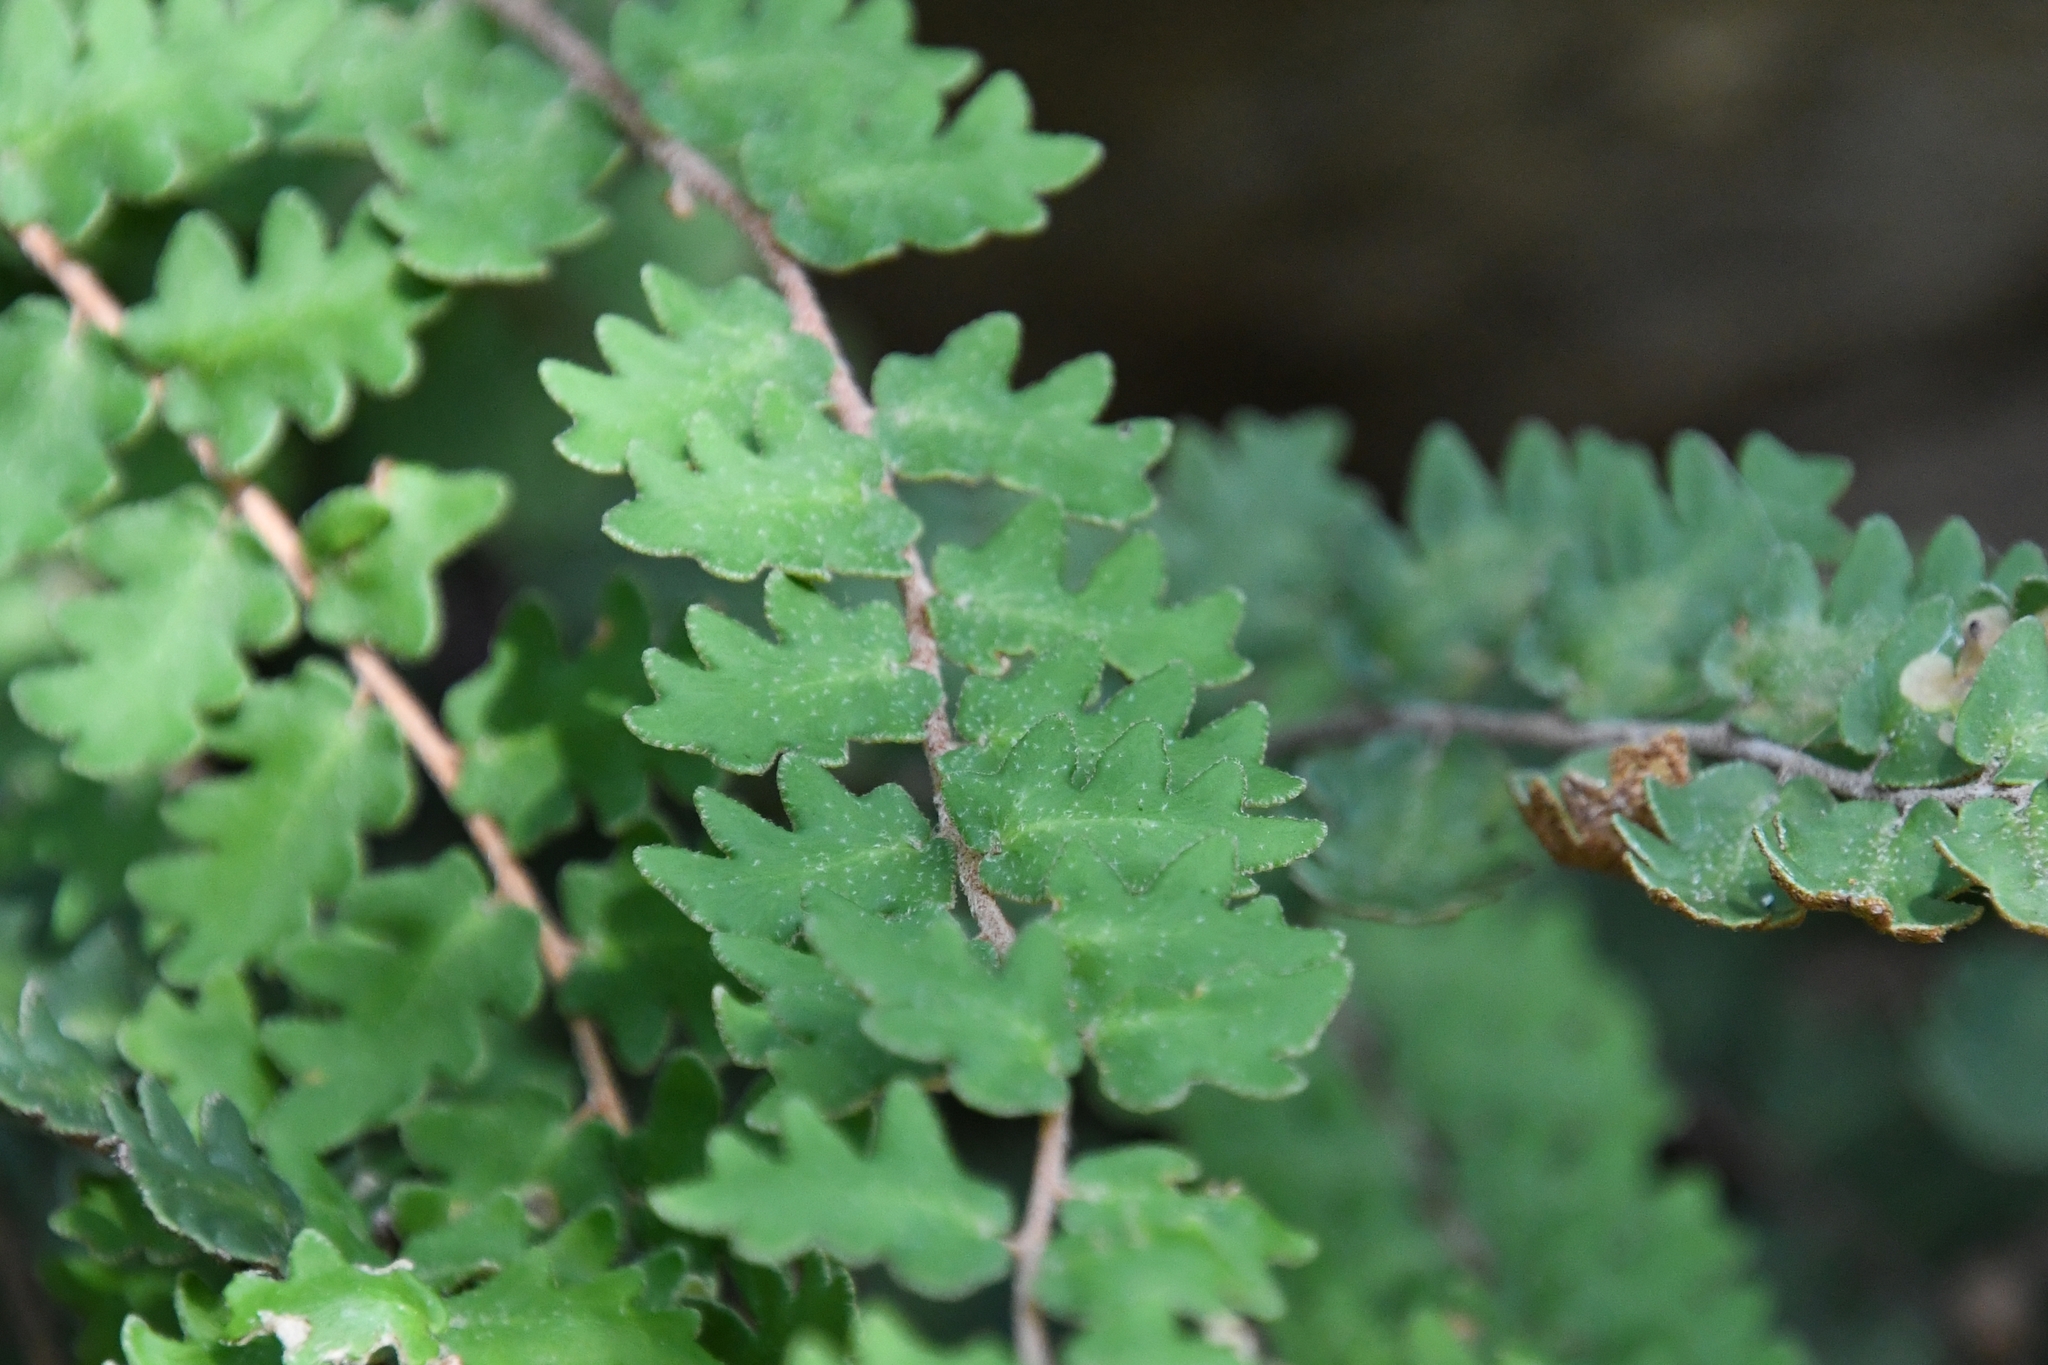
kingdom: Plantae
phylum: Tracheophyta
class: Polypodiopsida
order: Polypodiales
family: Pteridaceae
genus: Astrolepis
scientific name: Astrolepis sinuata
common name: Wavy scaly cloakfern
